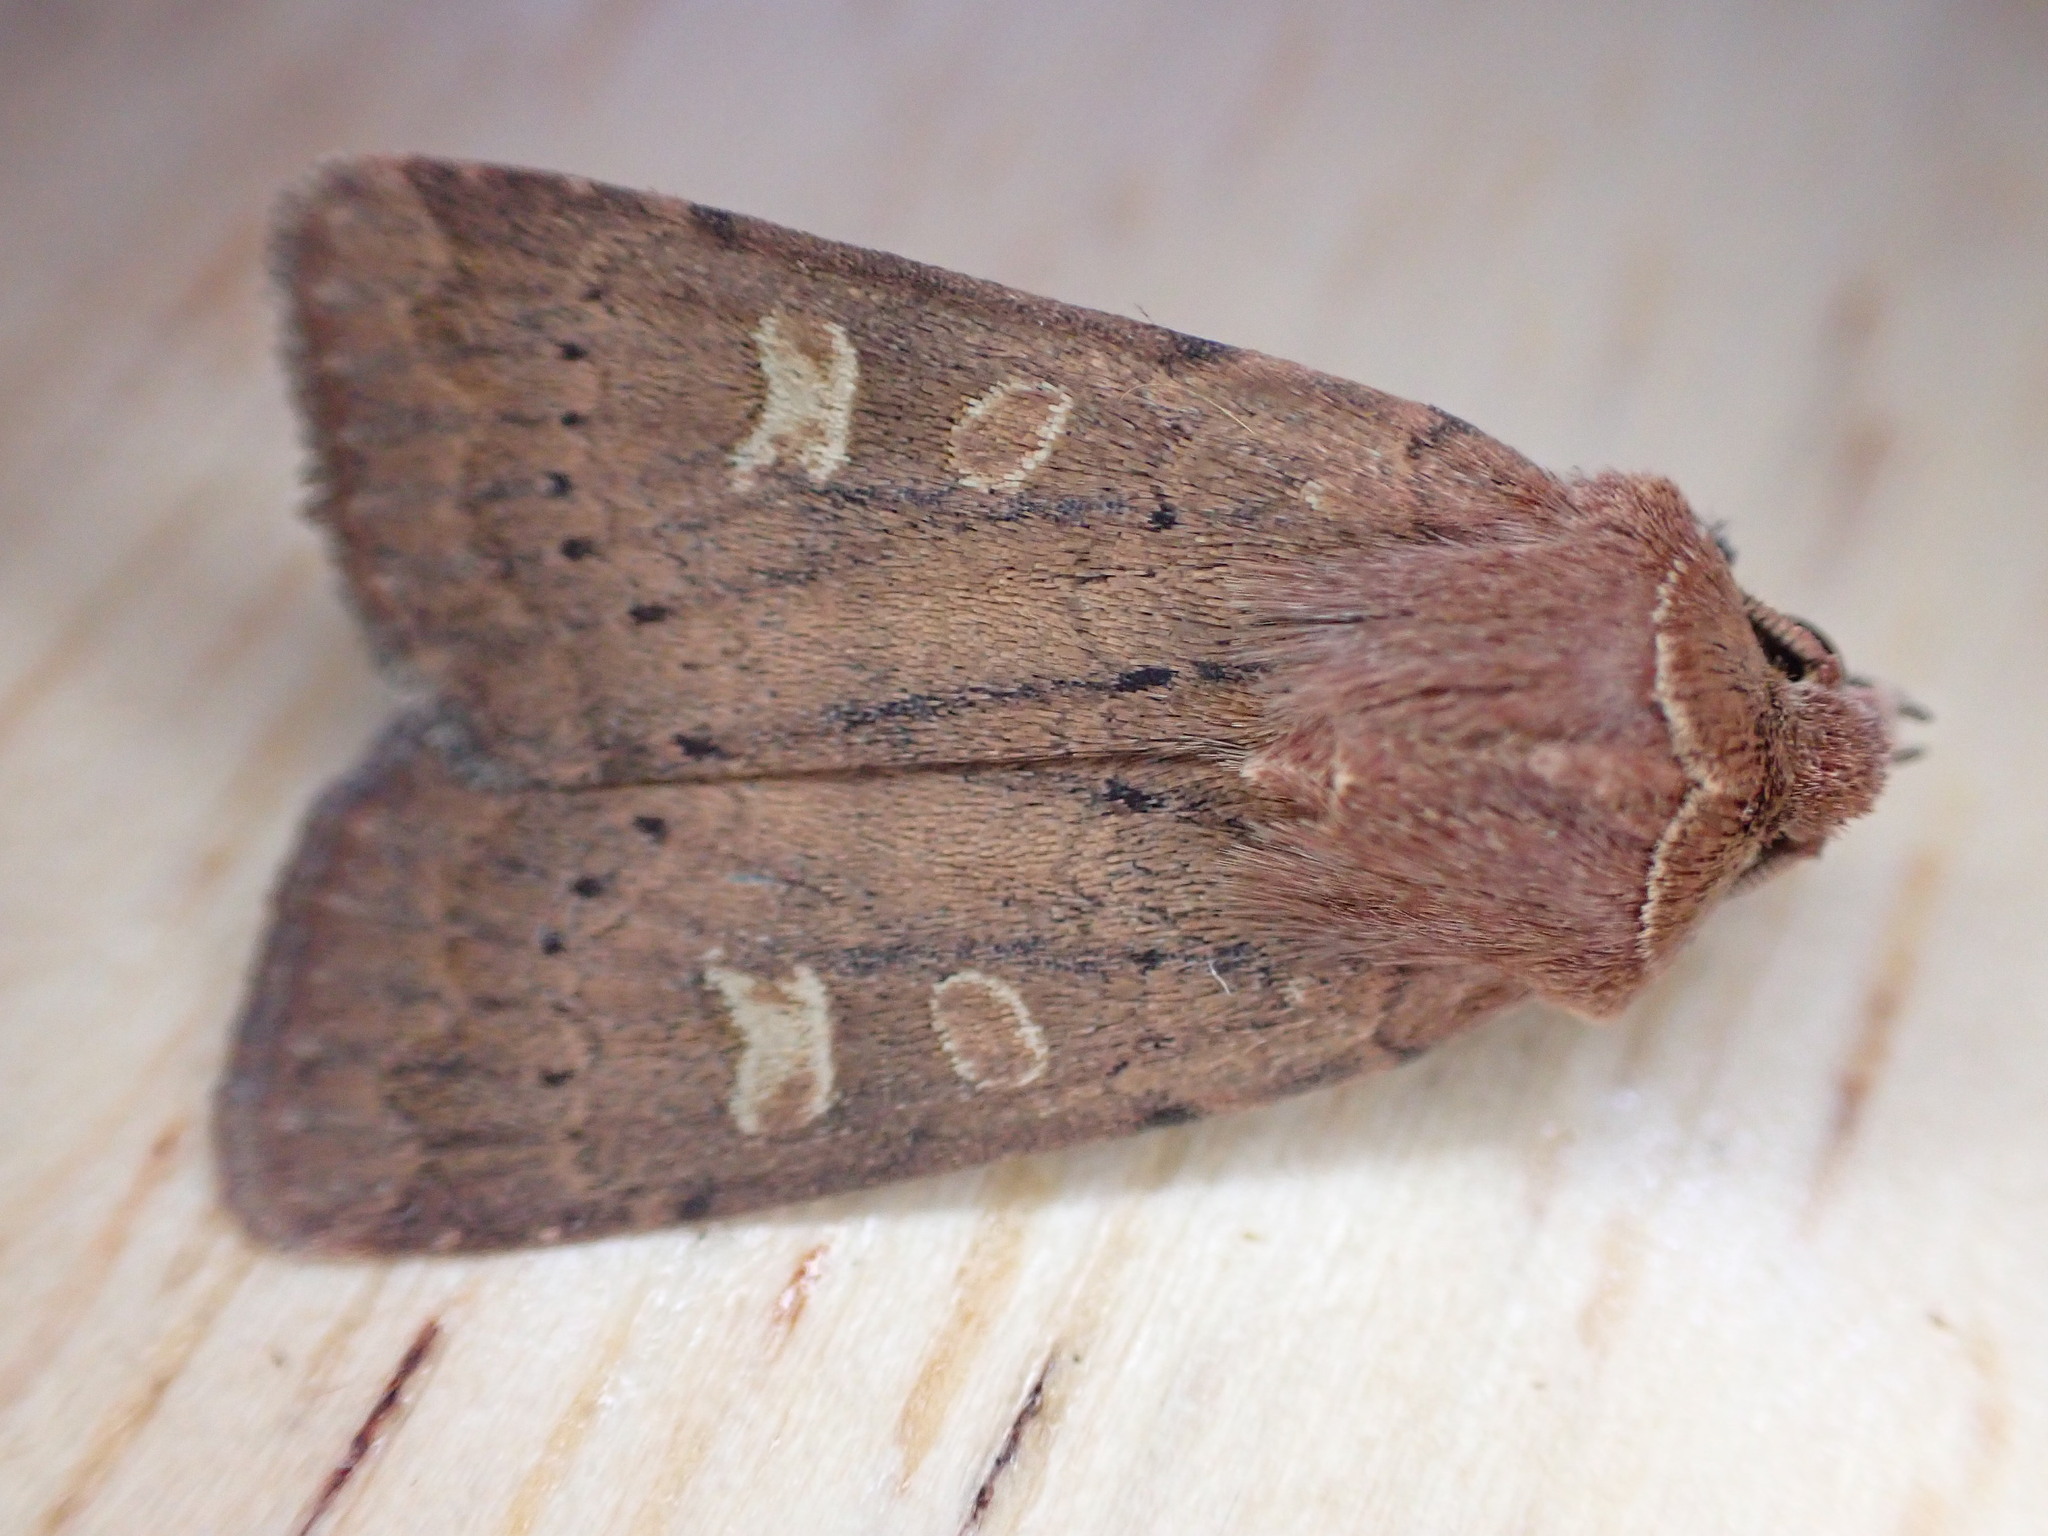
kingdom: Animalia
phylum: Arthropoda
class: Insecta
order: Lepidoptera
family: Noctuidae
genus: Xestia
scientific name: Xestia xanthographa
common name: Square-spot rustic
